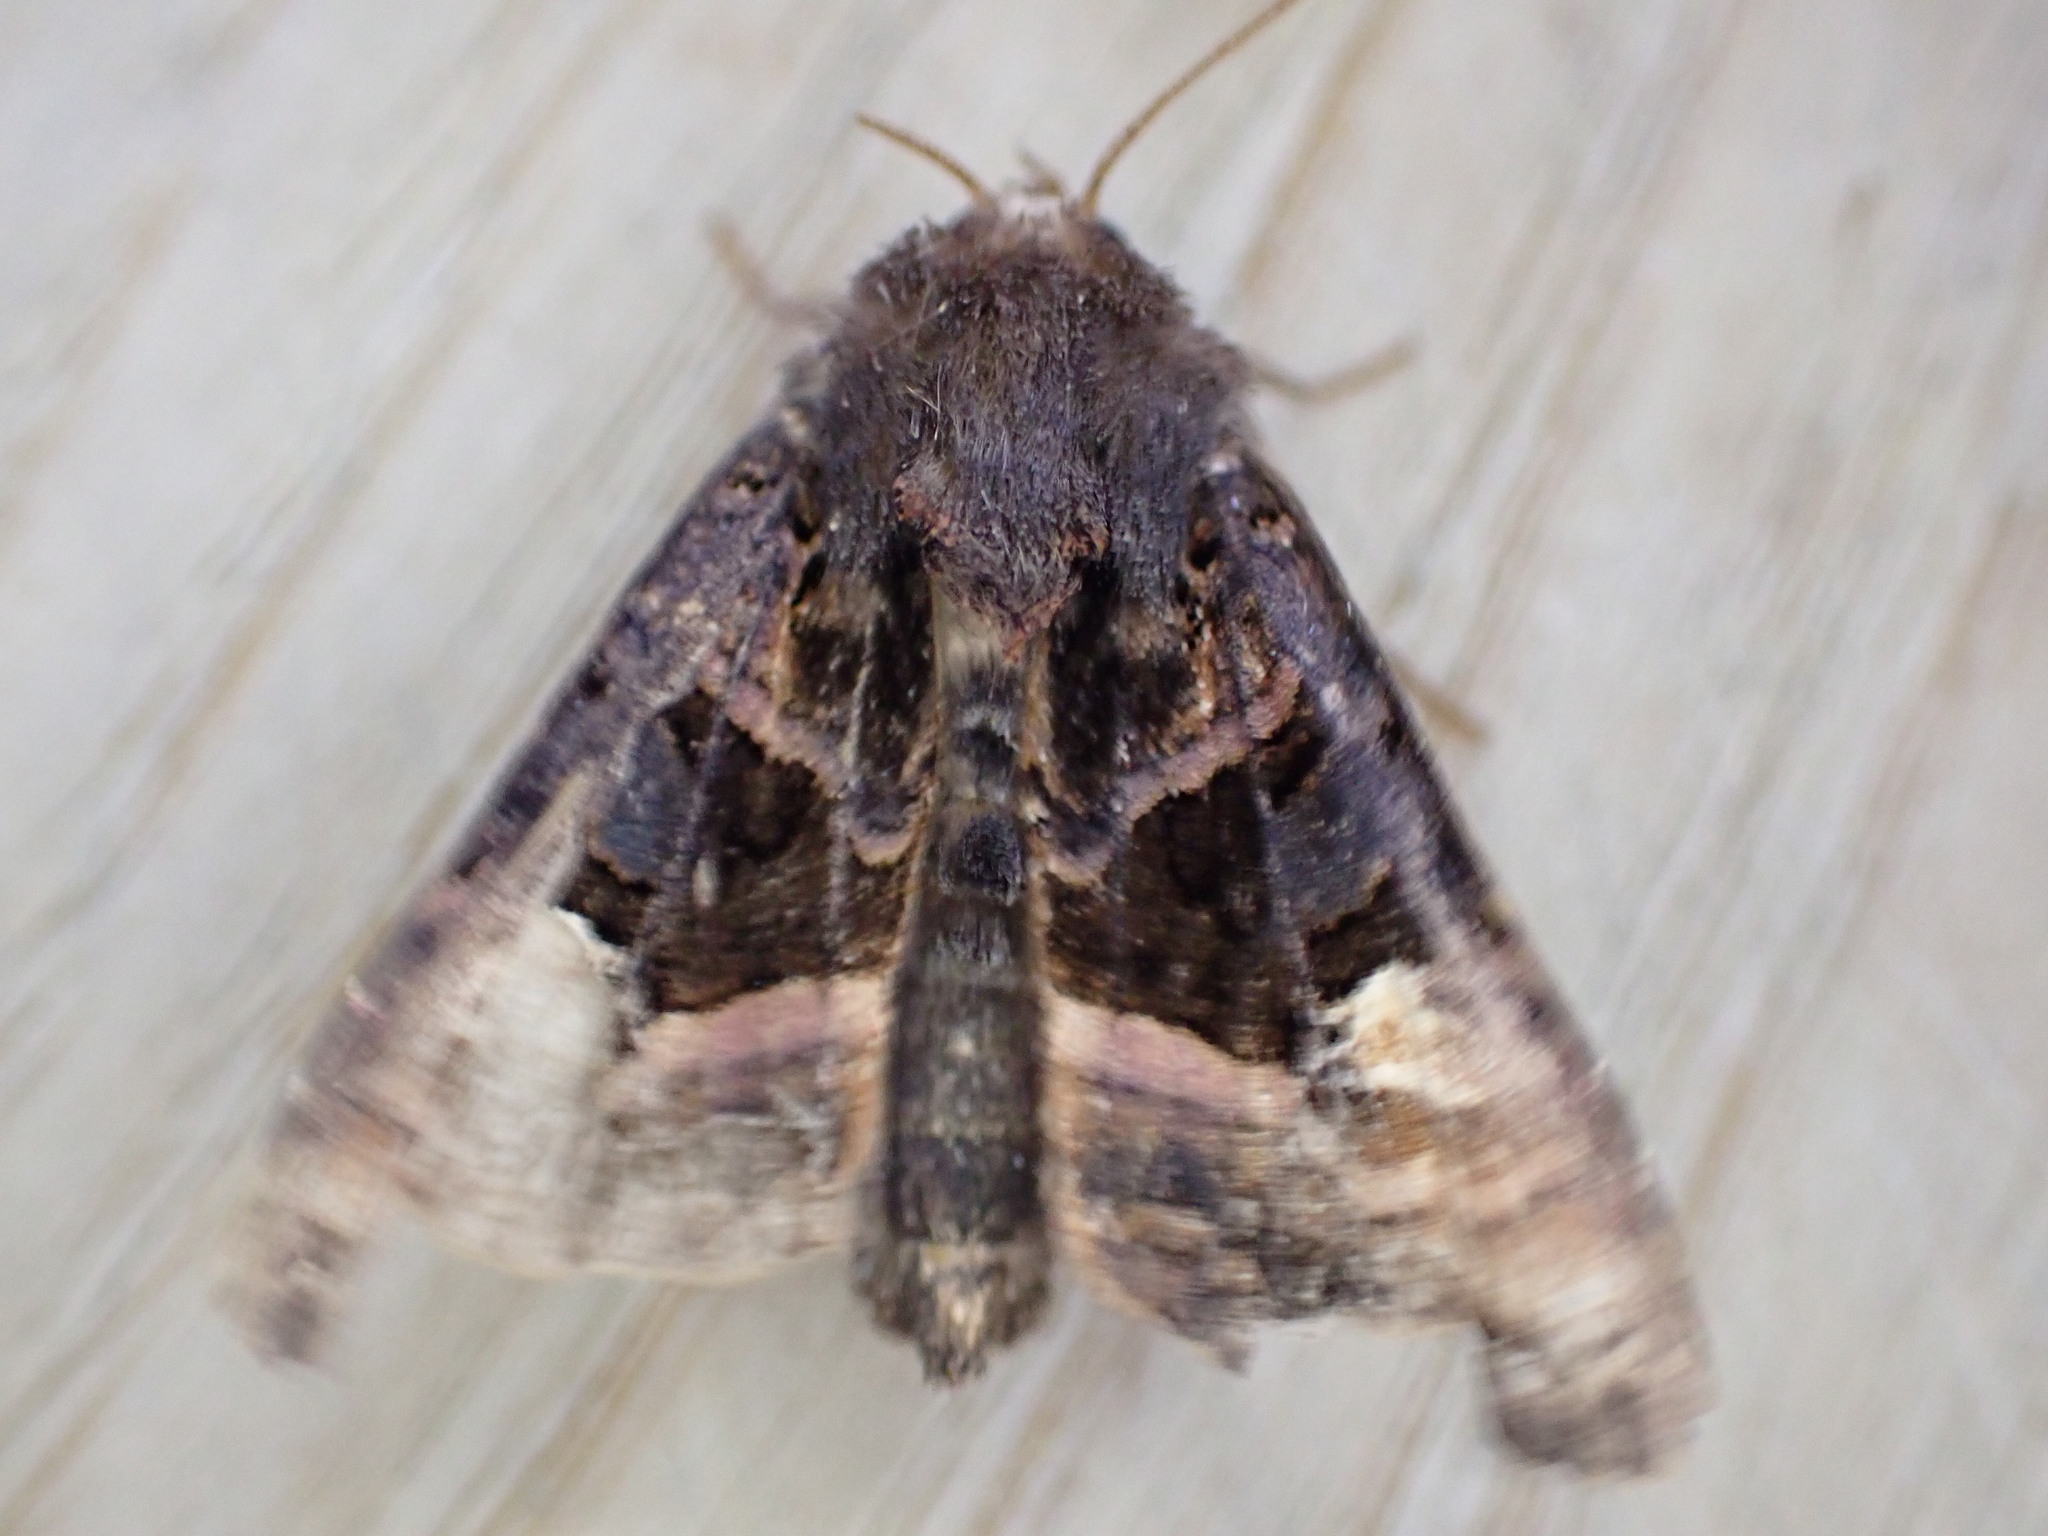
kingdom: Animalia
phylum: Arthropoda
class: Insecta
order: Lepidoptera
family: Noctuidae
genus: Euplexia
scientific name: Euplexia lucipara
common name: Small angle shades
